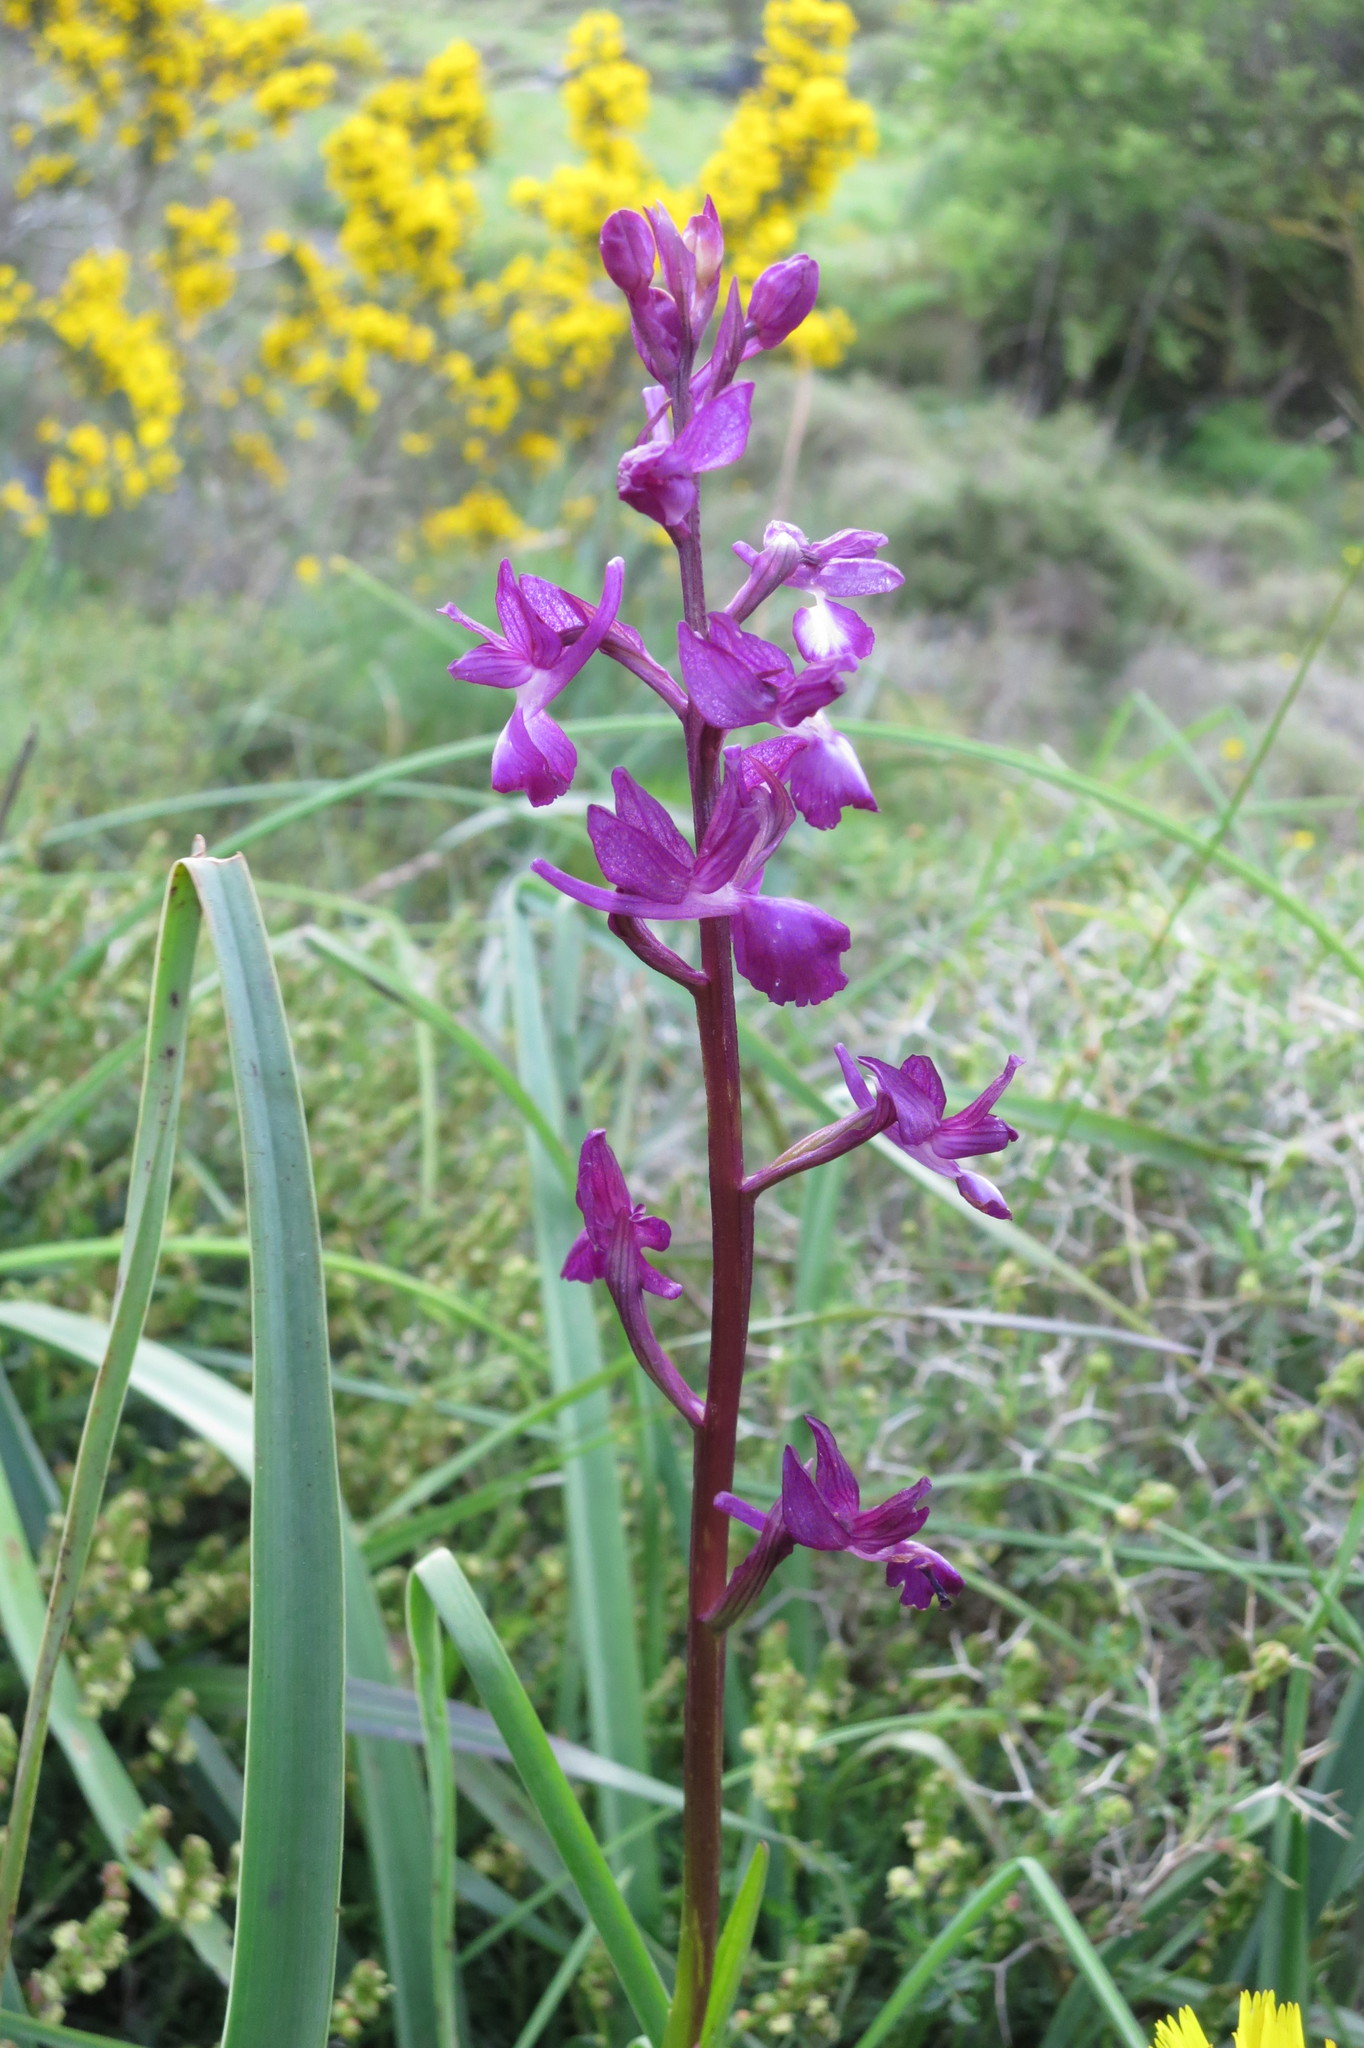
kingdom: Plantae
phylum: Tracheophyta
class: Liliopsida
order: Asparagales
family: Orchidaceae
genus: Anacamptis
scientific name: Anacamptis laxiflora
